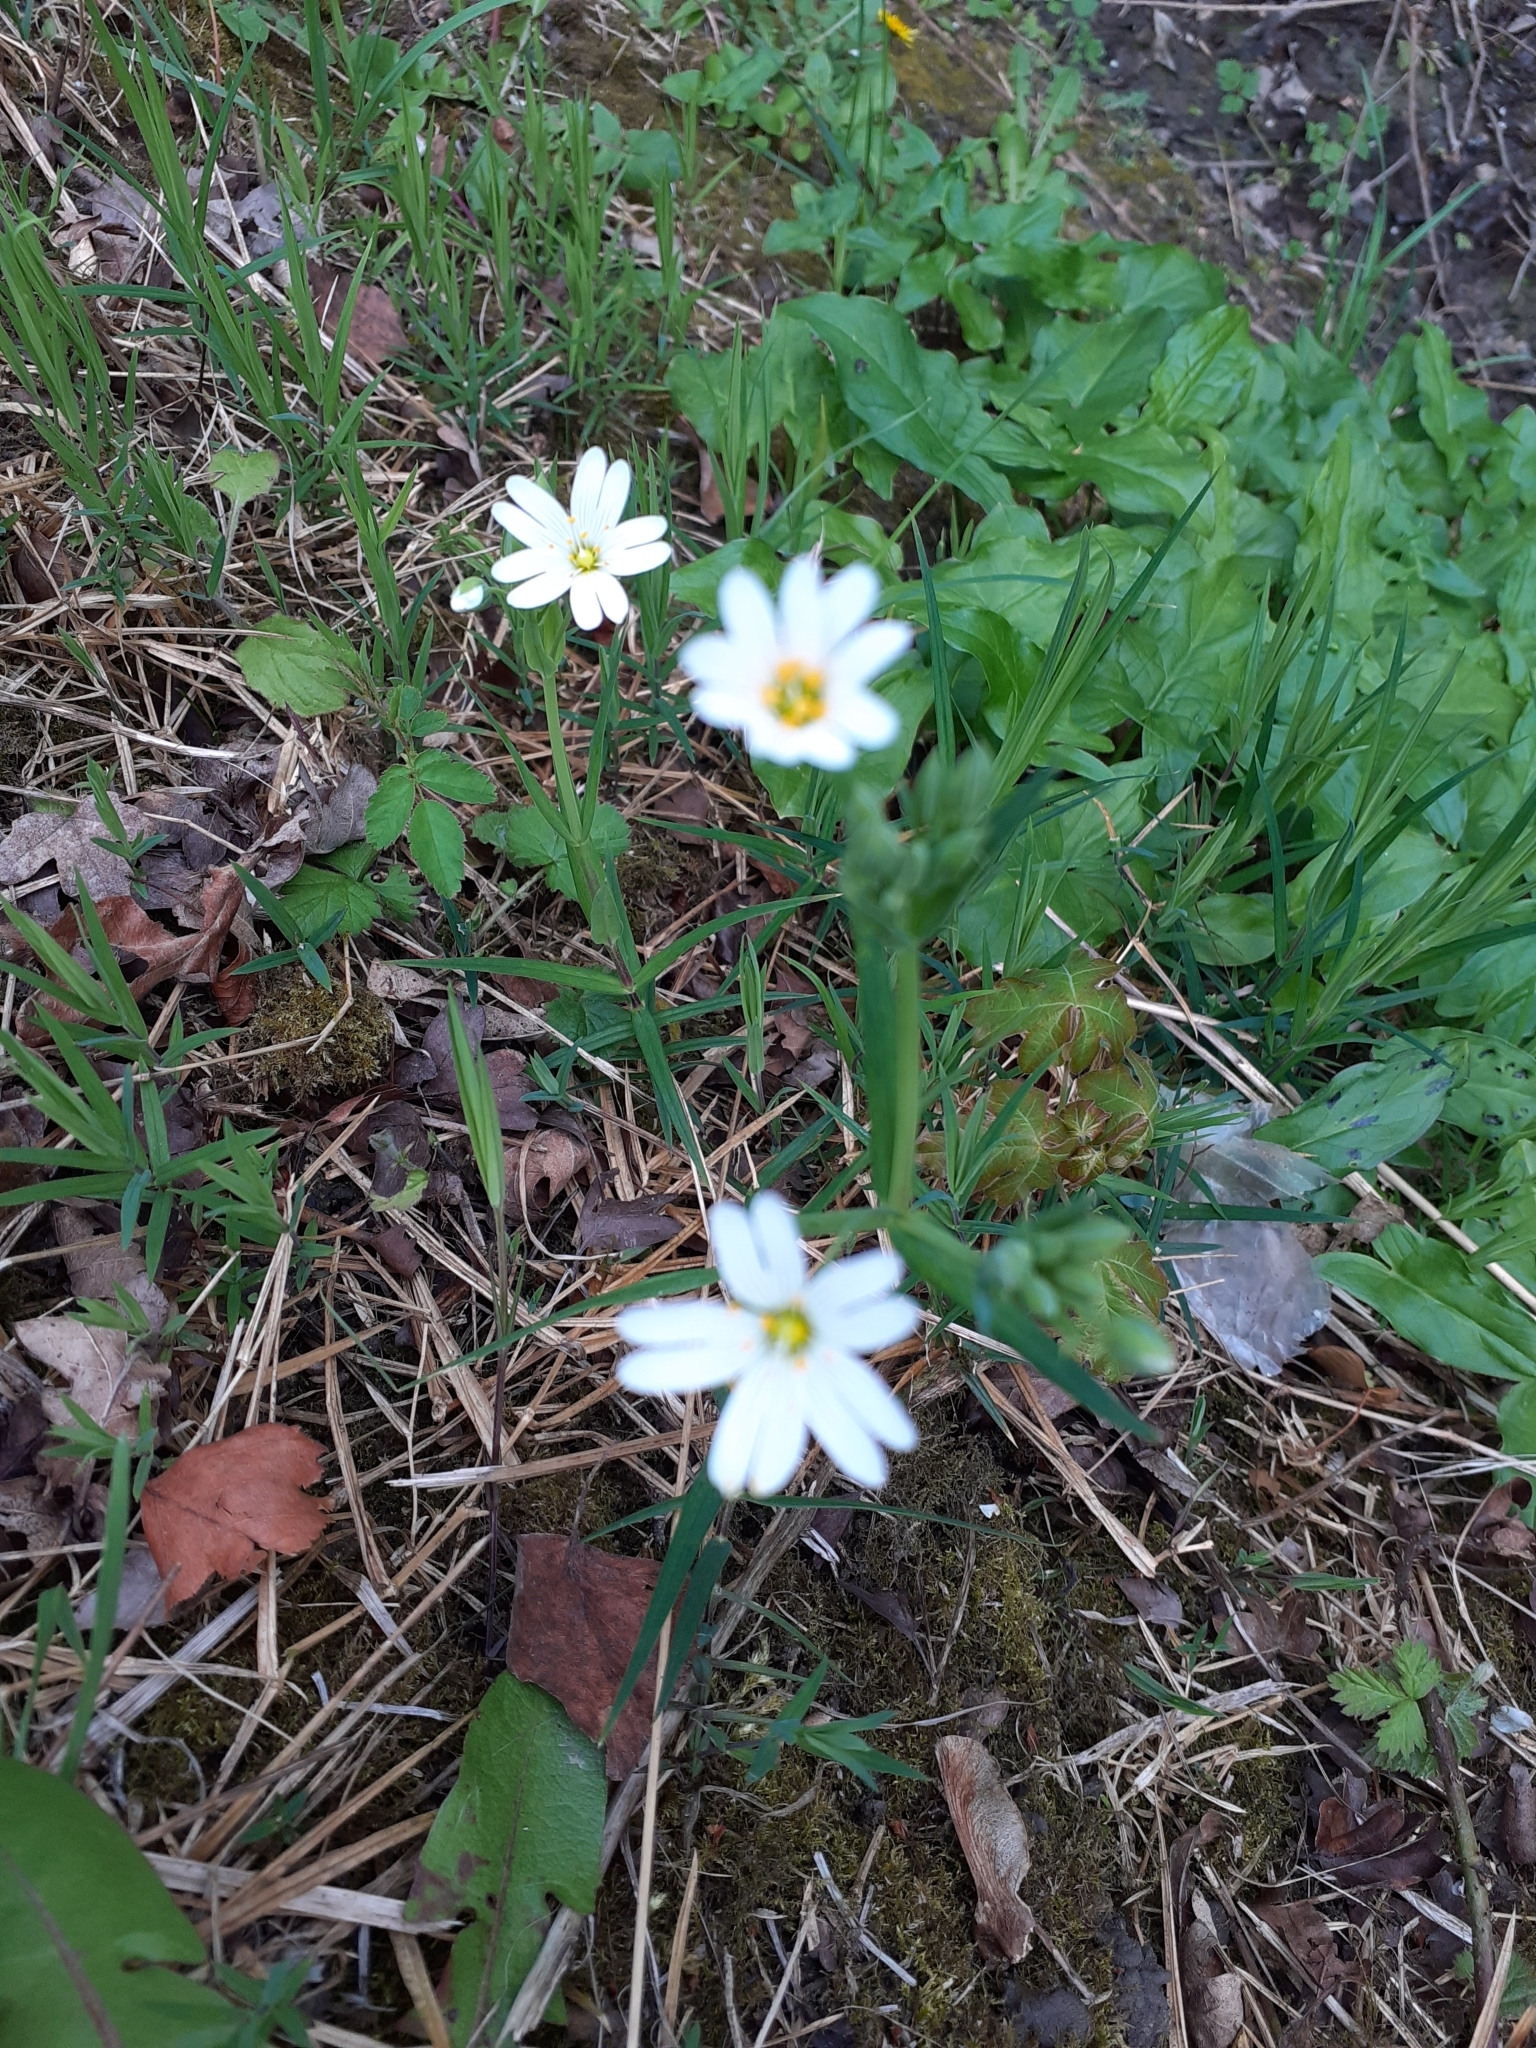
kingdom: Plantae
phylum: Tracheophyta
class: Magnoliopsida
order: Caryophyllales
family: Caryophyllaceae
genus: Rabelera
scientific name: Rabelera holostea
